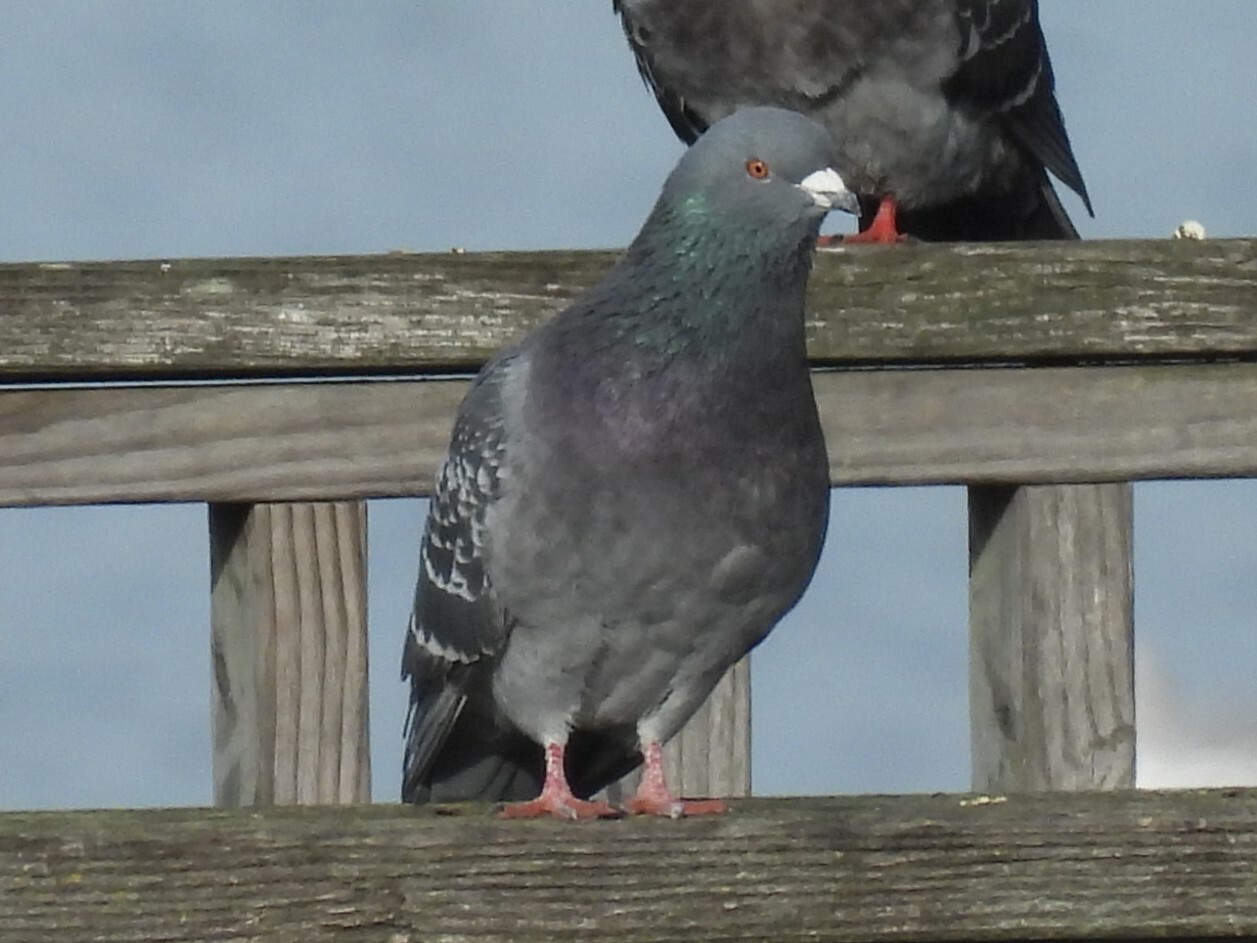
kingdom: Animalia
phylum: Chordata
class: Aves
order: Columbiformes
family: Columbidae
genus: Columba
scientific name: Columba livia
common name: Rock pigeon
